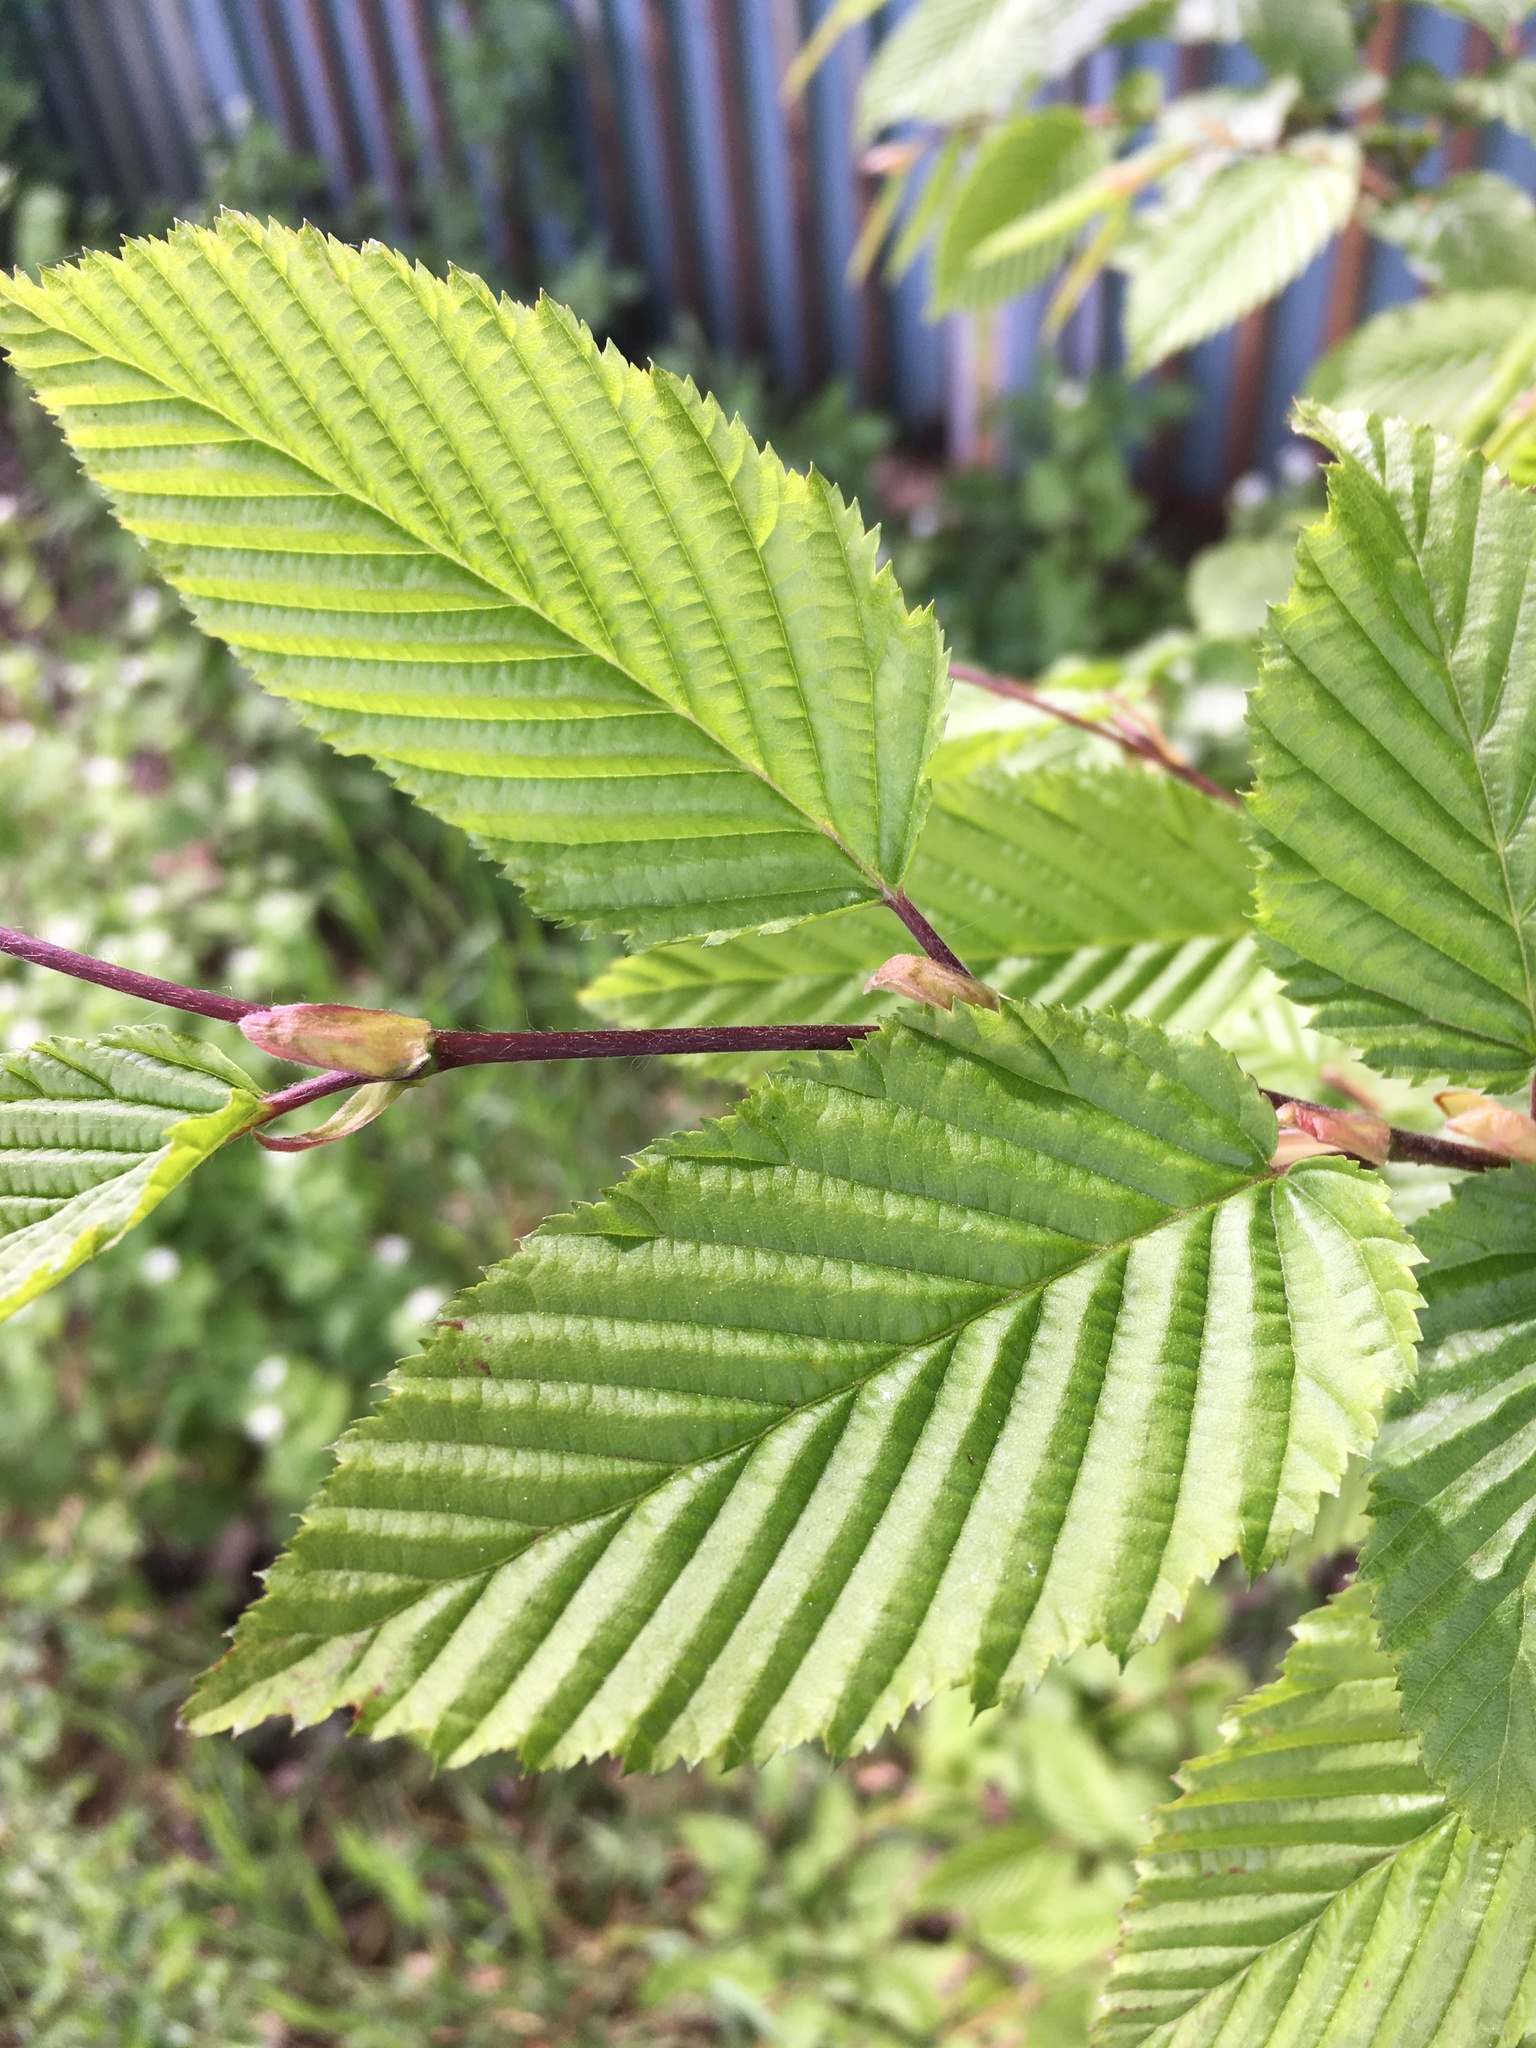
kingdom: Plantae
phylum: Tracheophyta
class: Magnoliopsida
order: Fagales
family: Betulaceae
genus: Carpinus
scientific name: Carpinus betulus
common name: Hornbeam
